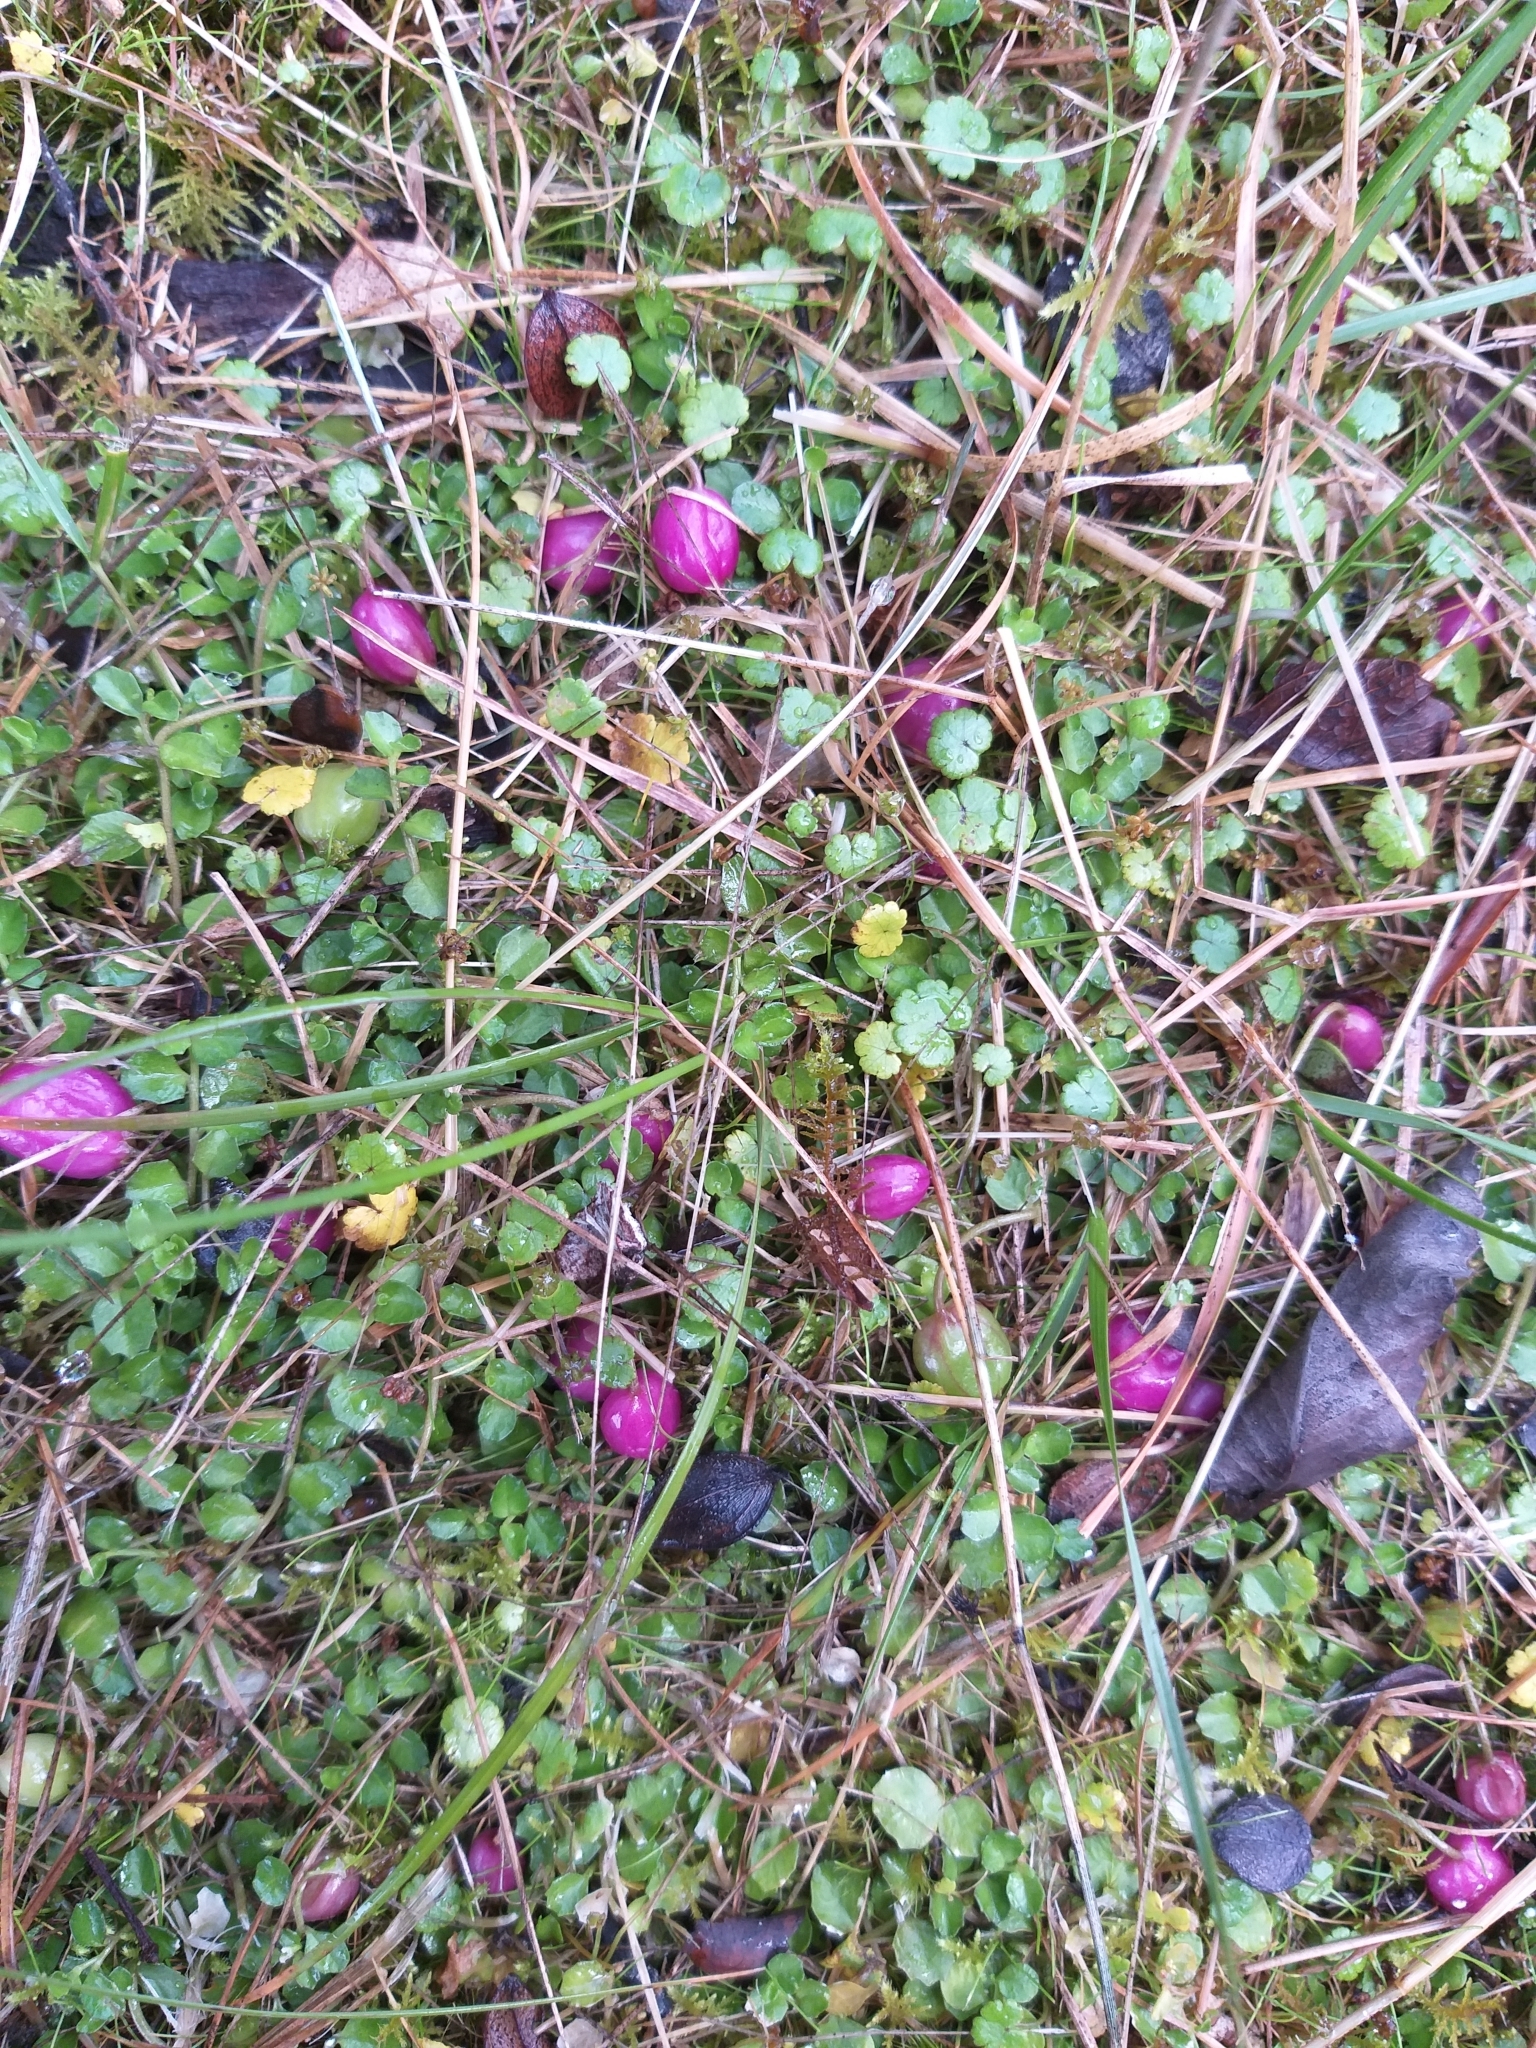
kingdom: Plantae
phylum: Tracheophyta
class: Magnoliopsida
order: Asterales
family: Campanulaceae
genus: Lobelia
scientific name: Lobelia angulata
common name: Lawn lobelia
